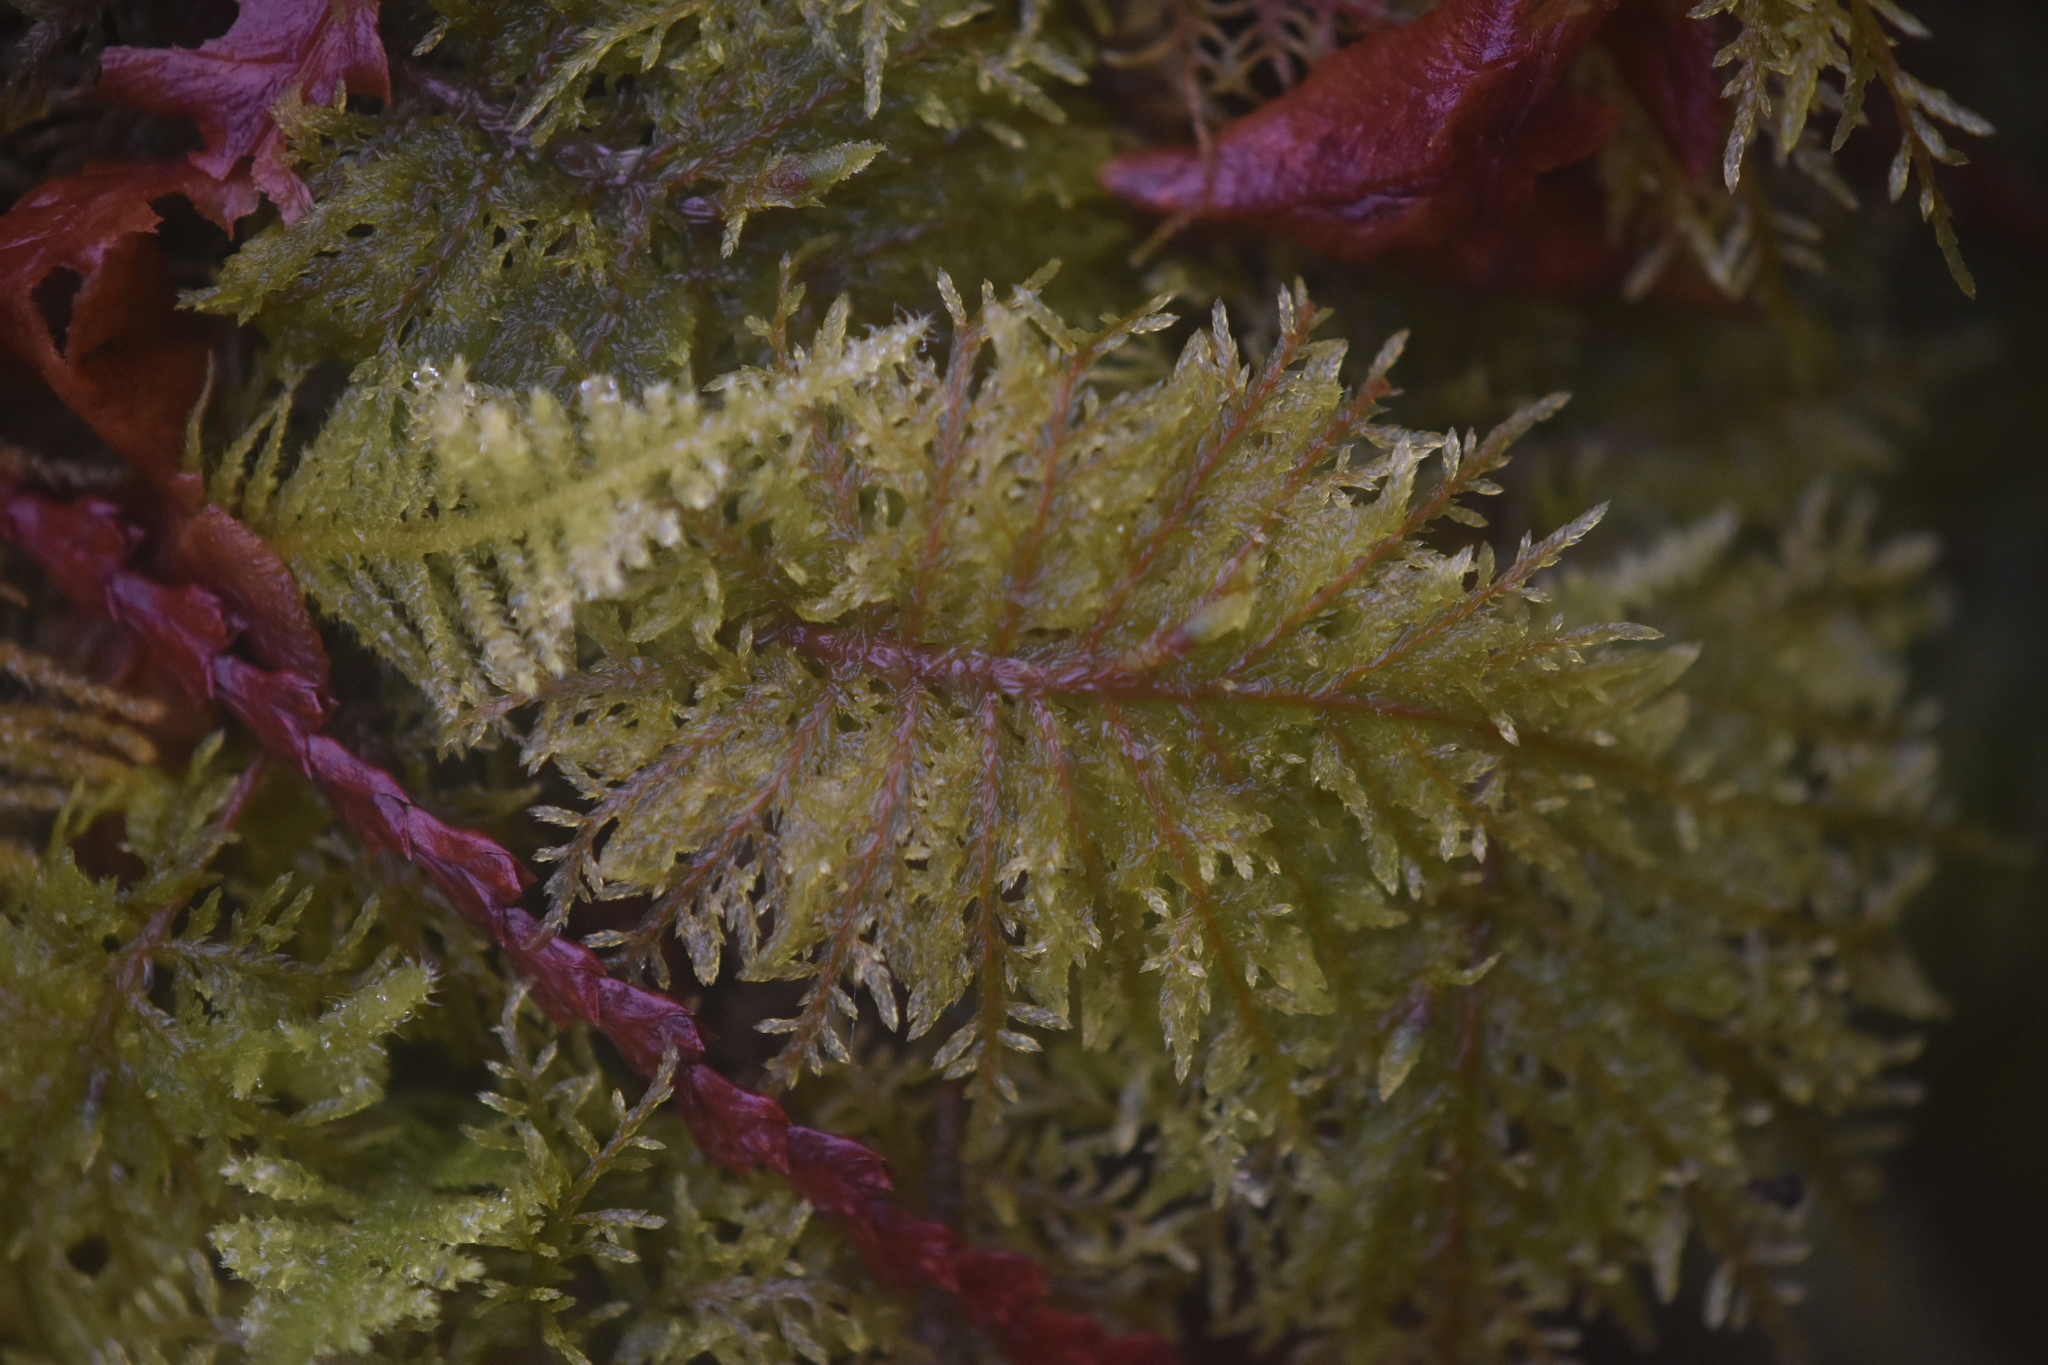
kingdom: Plantae
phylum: Bryophyta
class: Bryopsida
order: Hypnales
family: Hylocomiaceae
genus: Hylocomium
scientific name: Hylocomium splendens
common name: Stairstep moss
